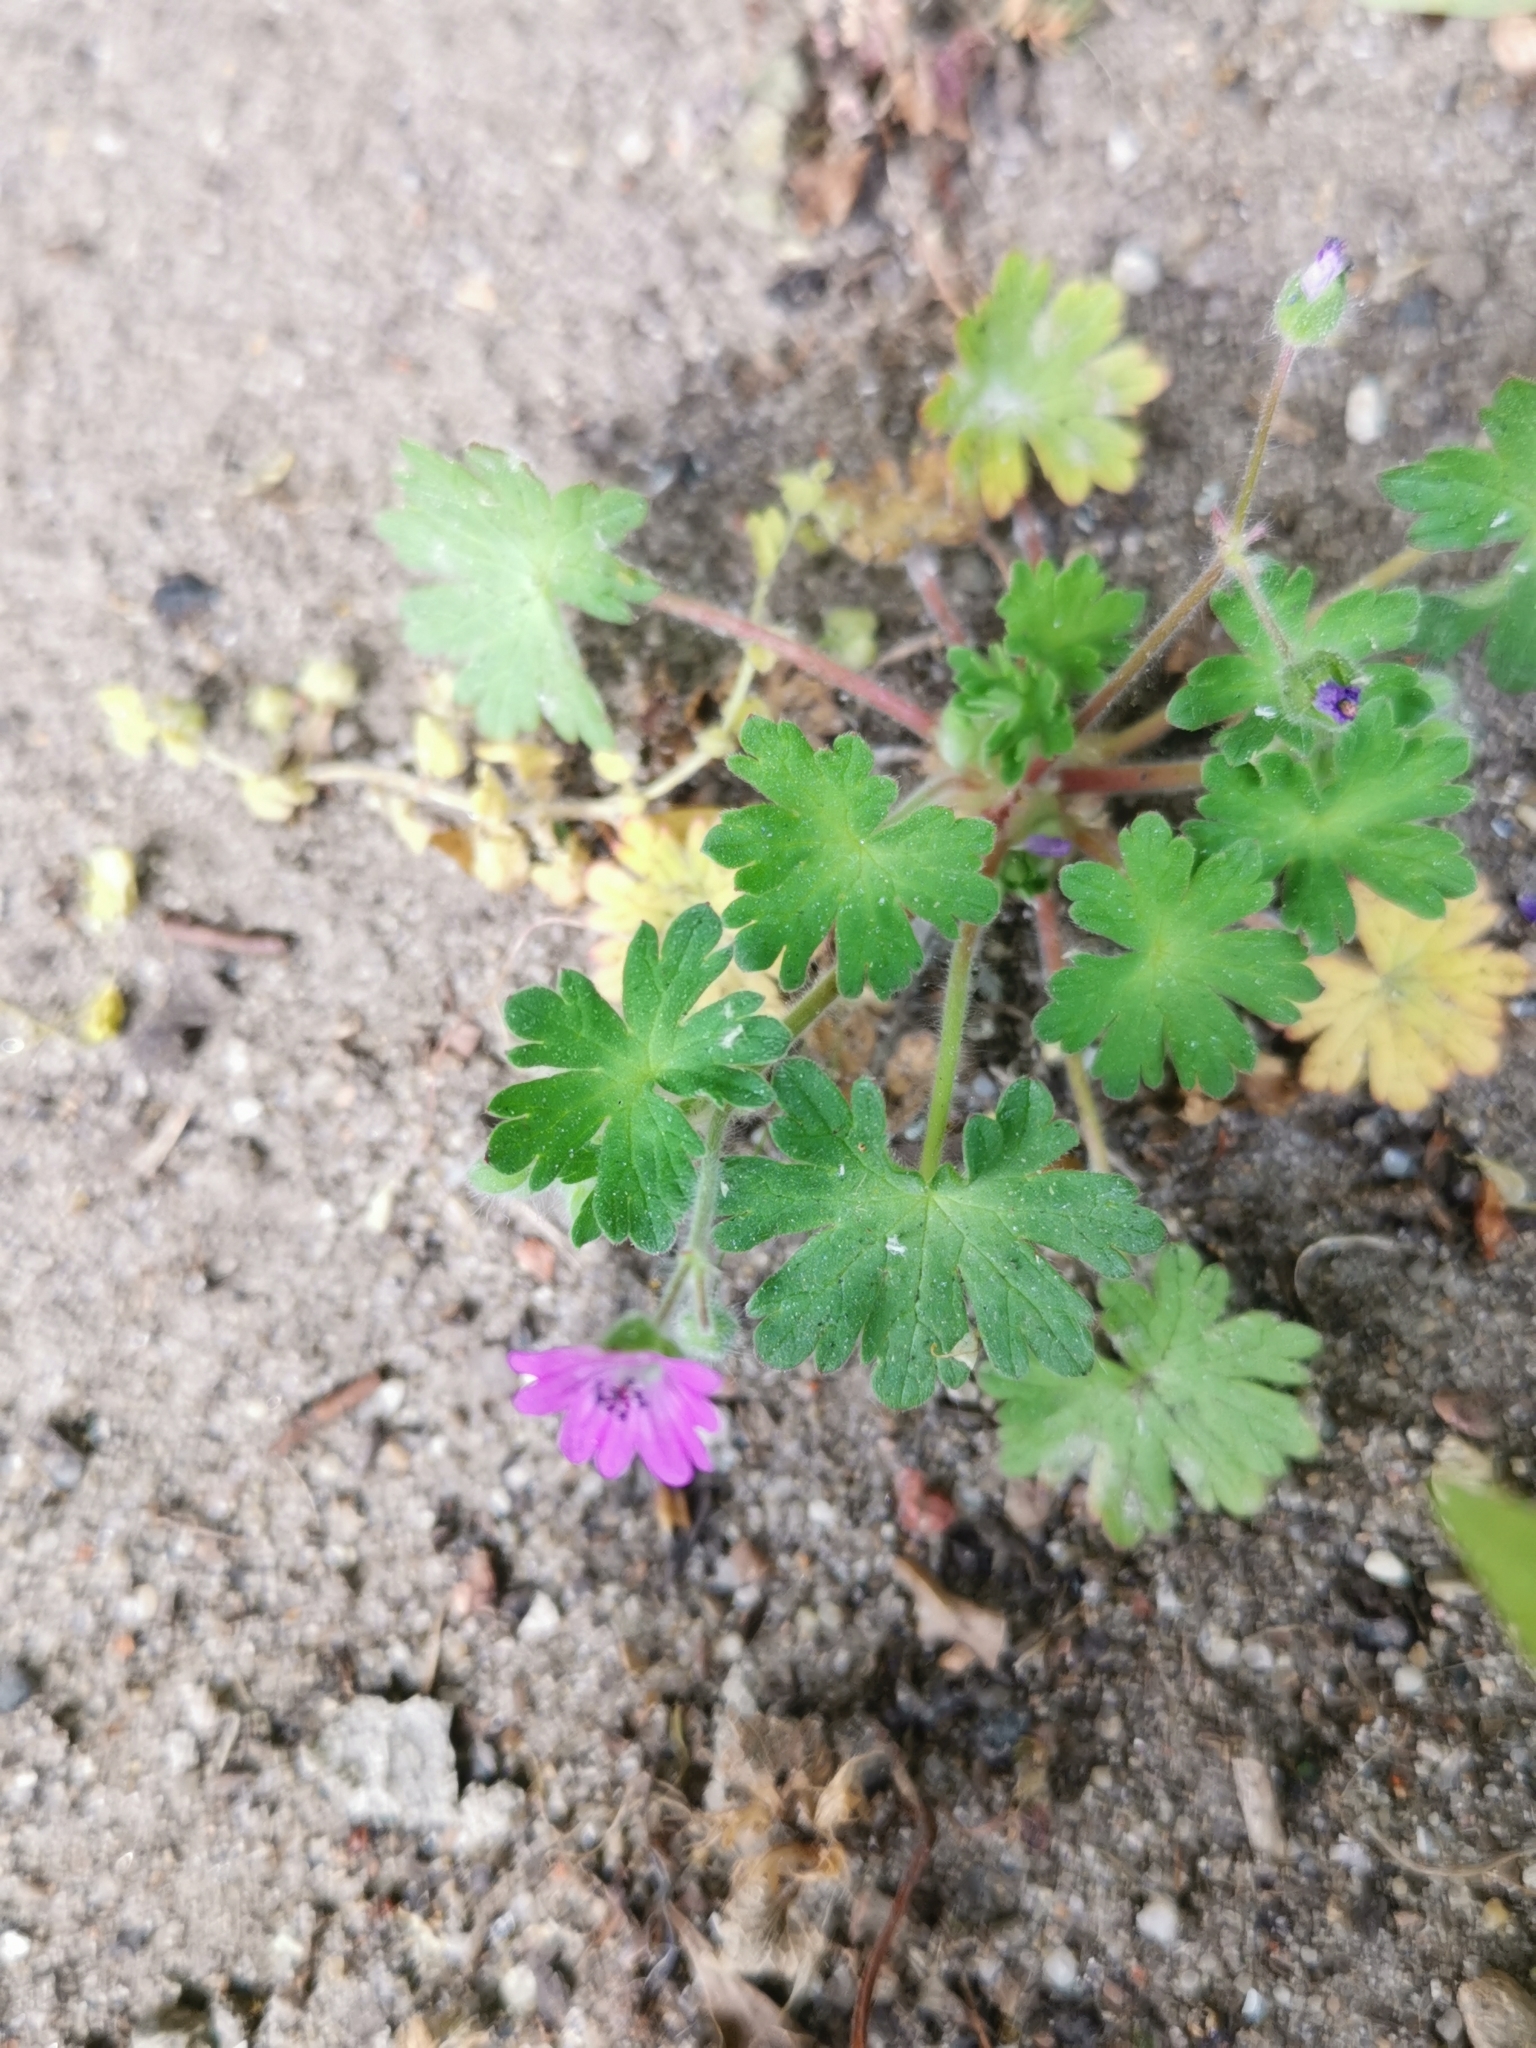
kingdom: Plantae
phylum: Tracheophyta
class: Magnoliopsida
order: Geraniales
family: Geraniaceae
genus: Geranium
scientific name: Geranium molle
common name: Dove's-foot crane's-bill
